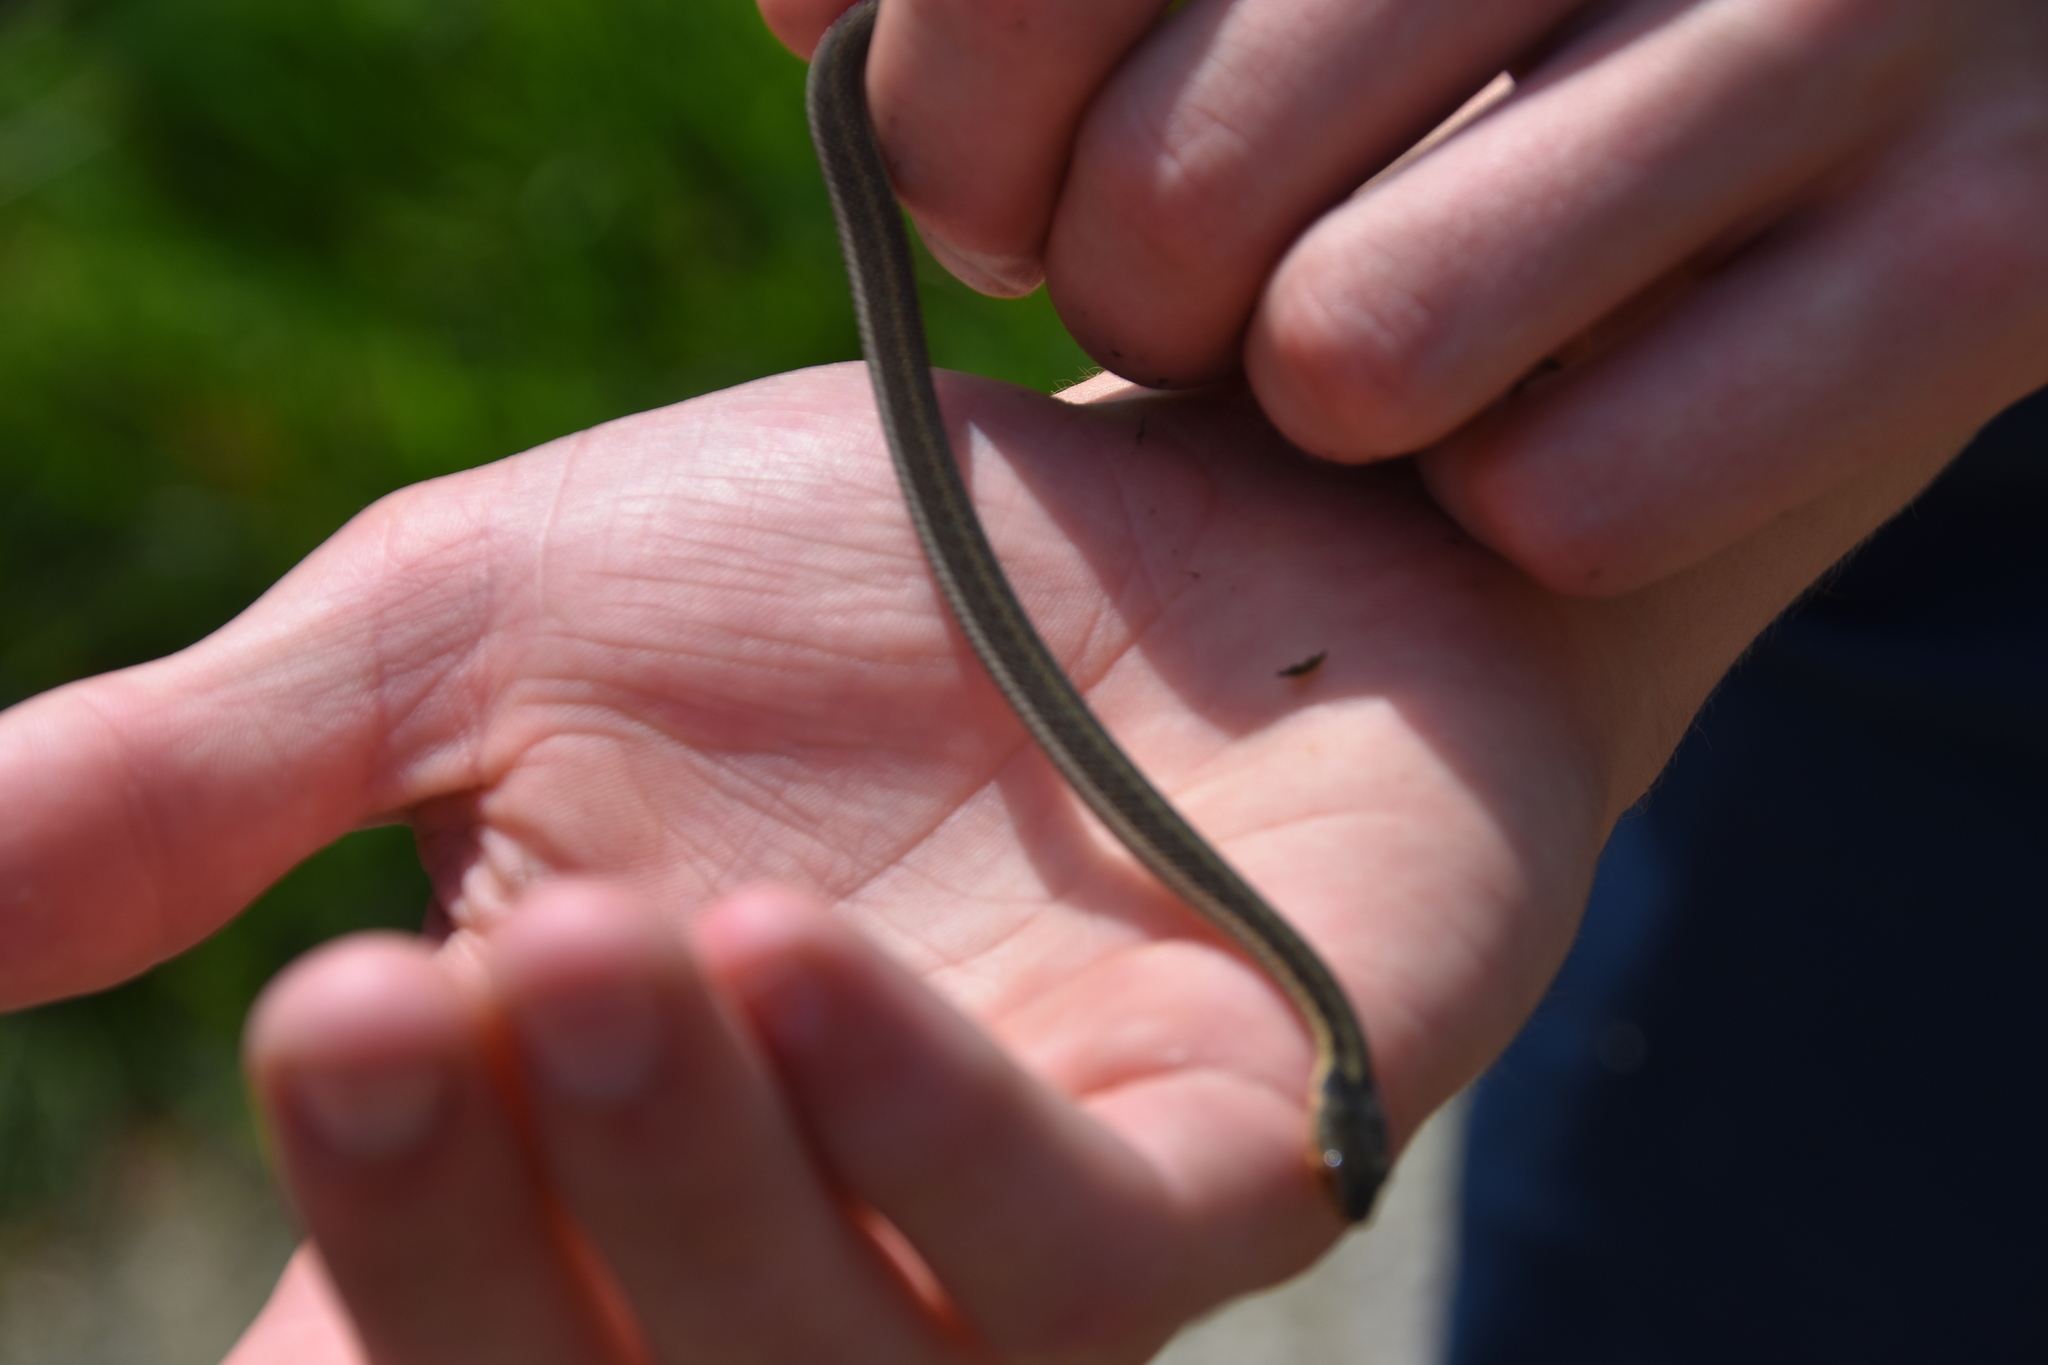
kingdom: Animalia
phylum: Chordata
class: Squamata
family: Colubridae
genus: Thamnophis
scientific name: Thamnophis sirtalis
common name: Common garter snake
